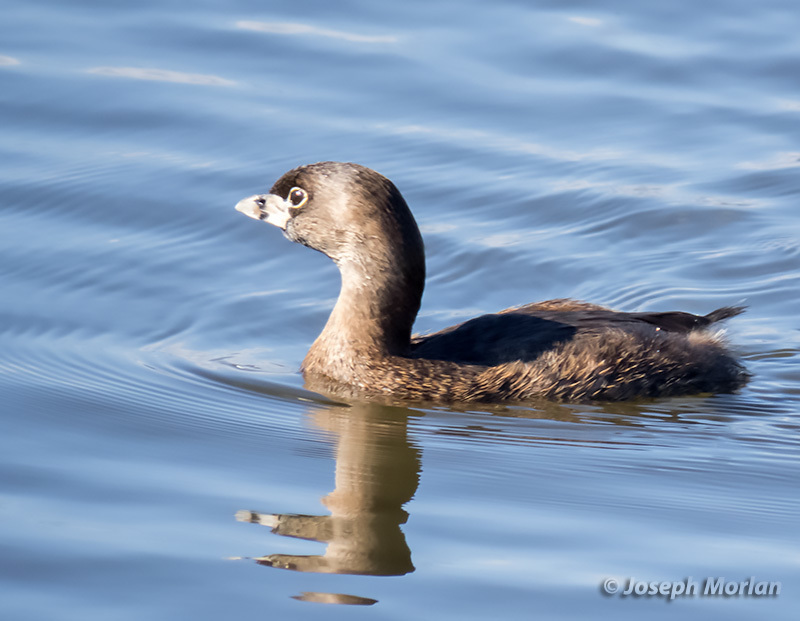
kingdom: Animalia
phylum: Chordata
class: Aves
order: Podicipediformes
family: Podicipedidae
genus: Podilymbus
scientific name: Podilymbus podiceps
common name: Pied-billed grebe
